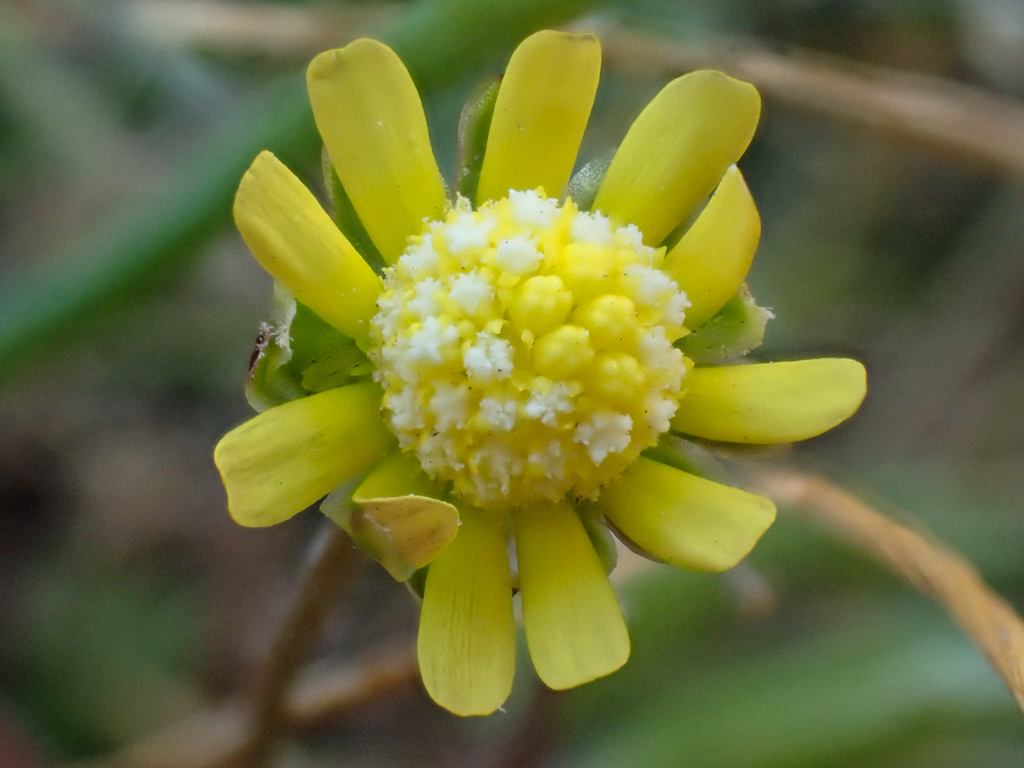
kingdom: Plantae
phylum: Tracheophyta
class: Magnoliopsida
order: Asterales
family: Asteraceae
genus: Blennosperma
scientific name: Blennosperma nanum
